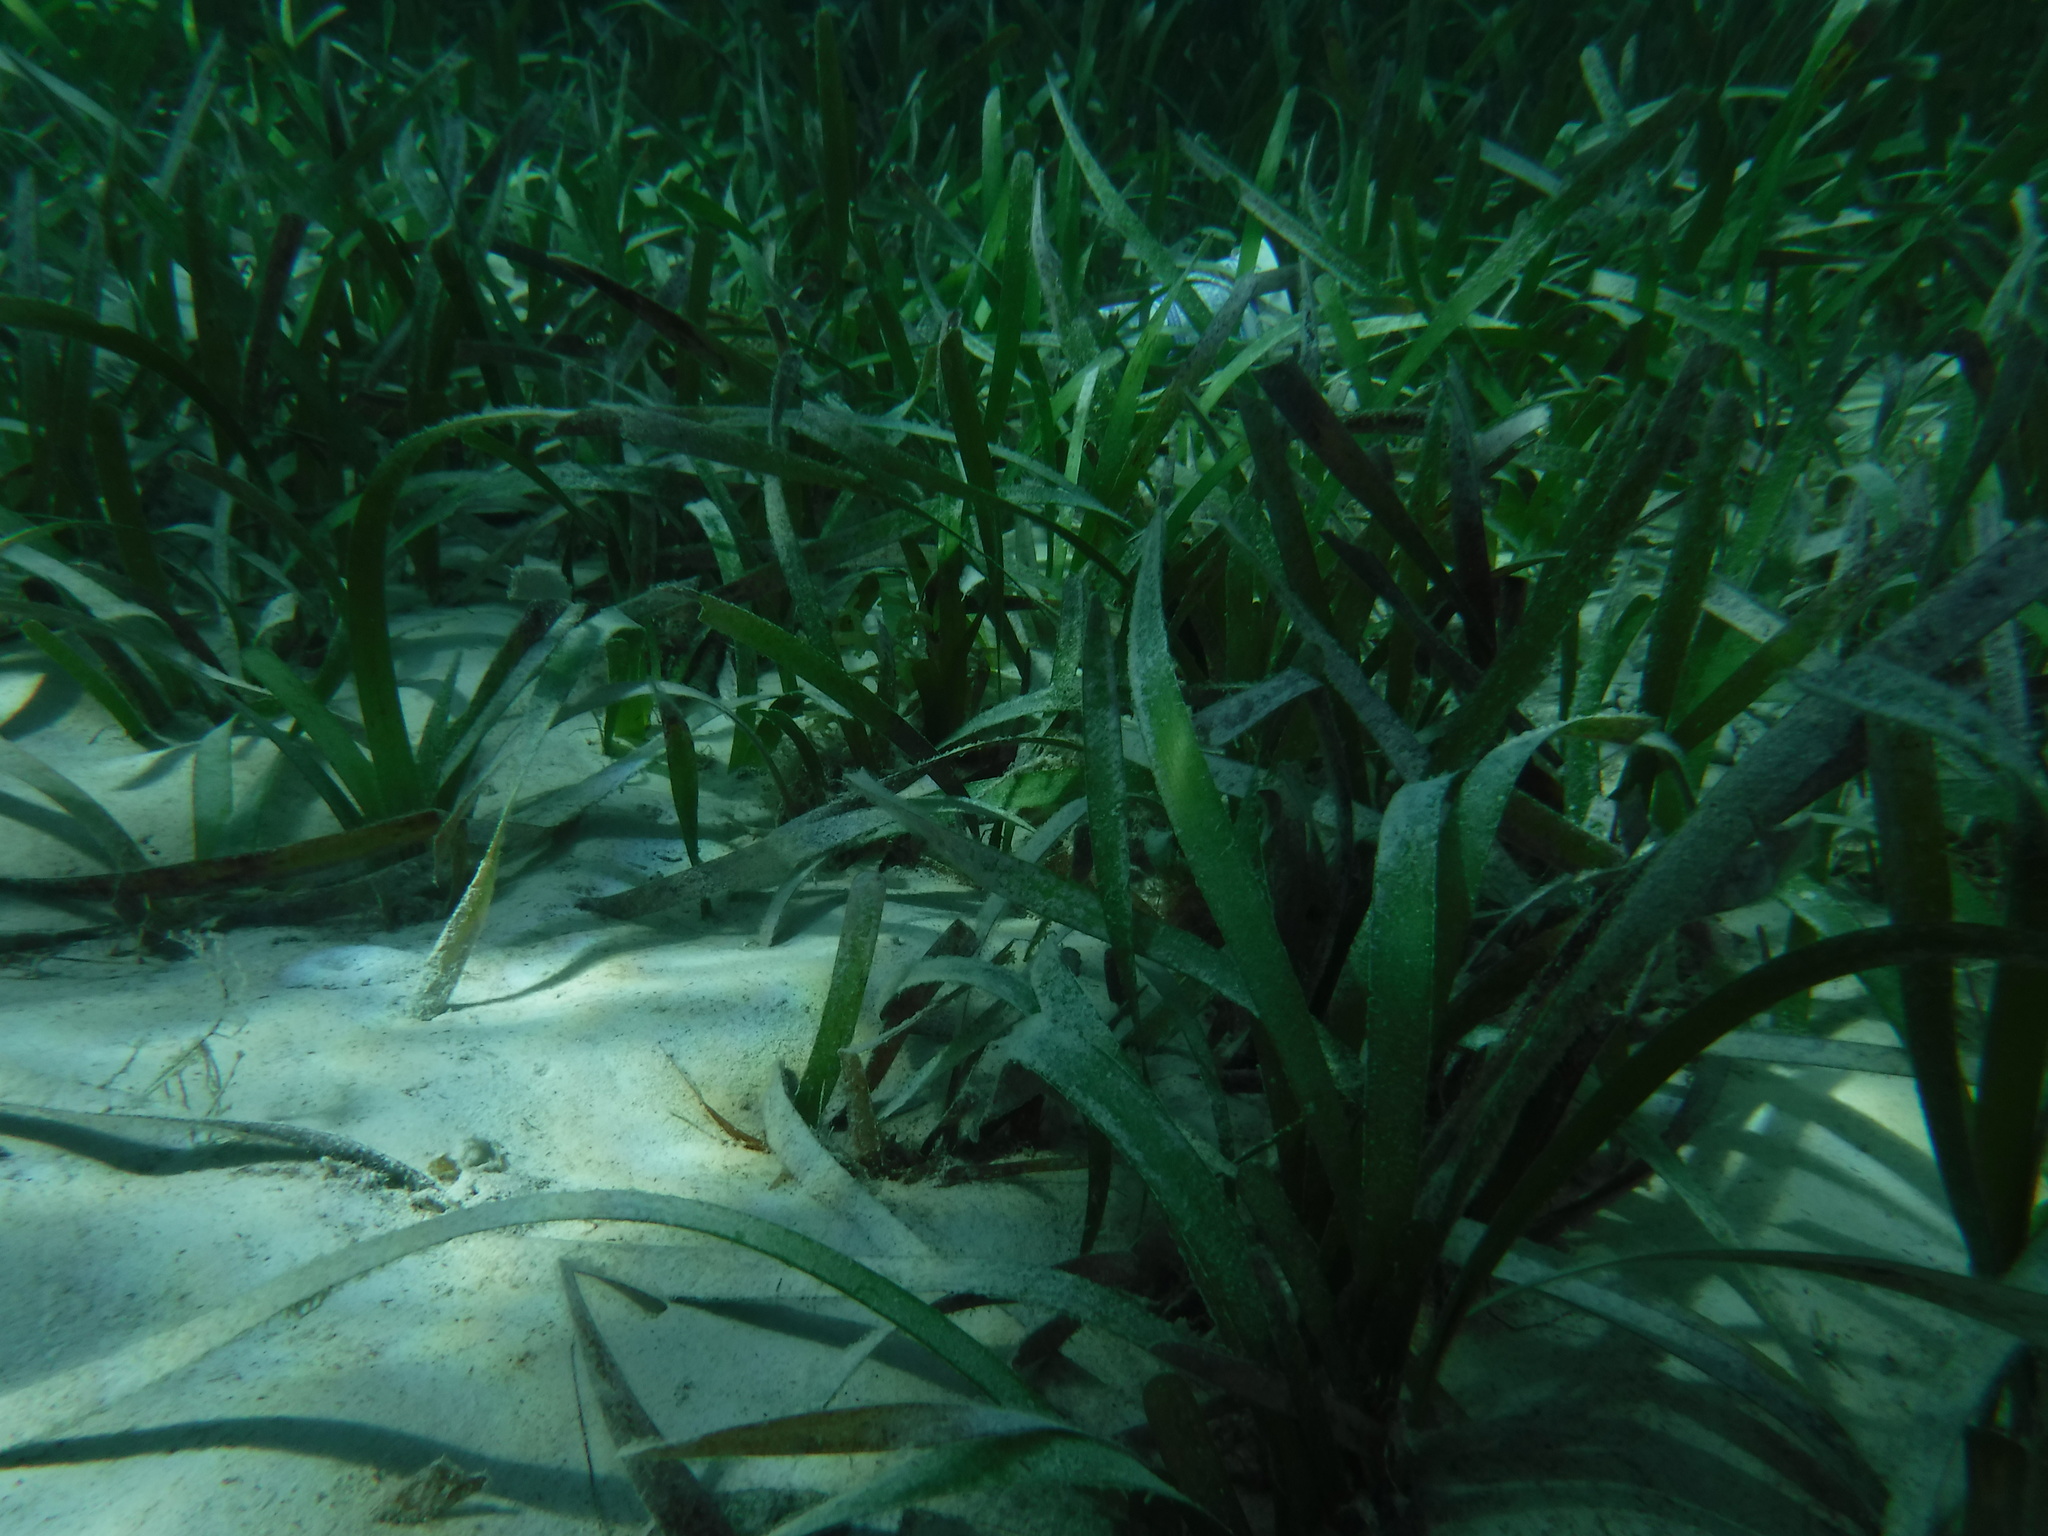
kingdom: Plantae
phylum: Tracheophyta
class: Liliopsida
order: Alismatales
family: Hydrocharitaceae
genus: Thalassia
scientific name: Thalassia testudinum
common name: Species code: tt
